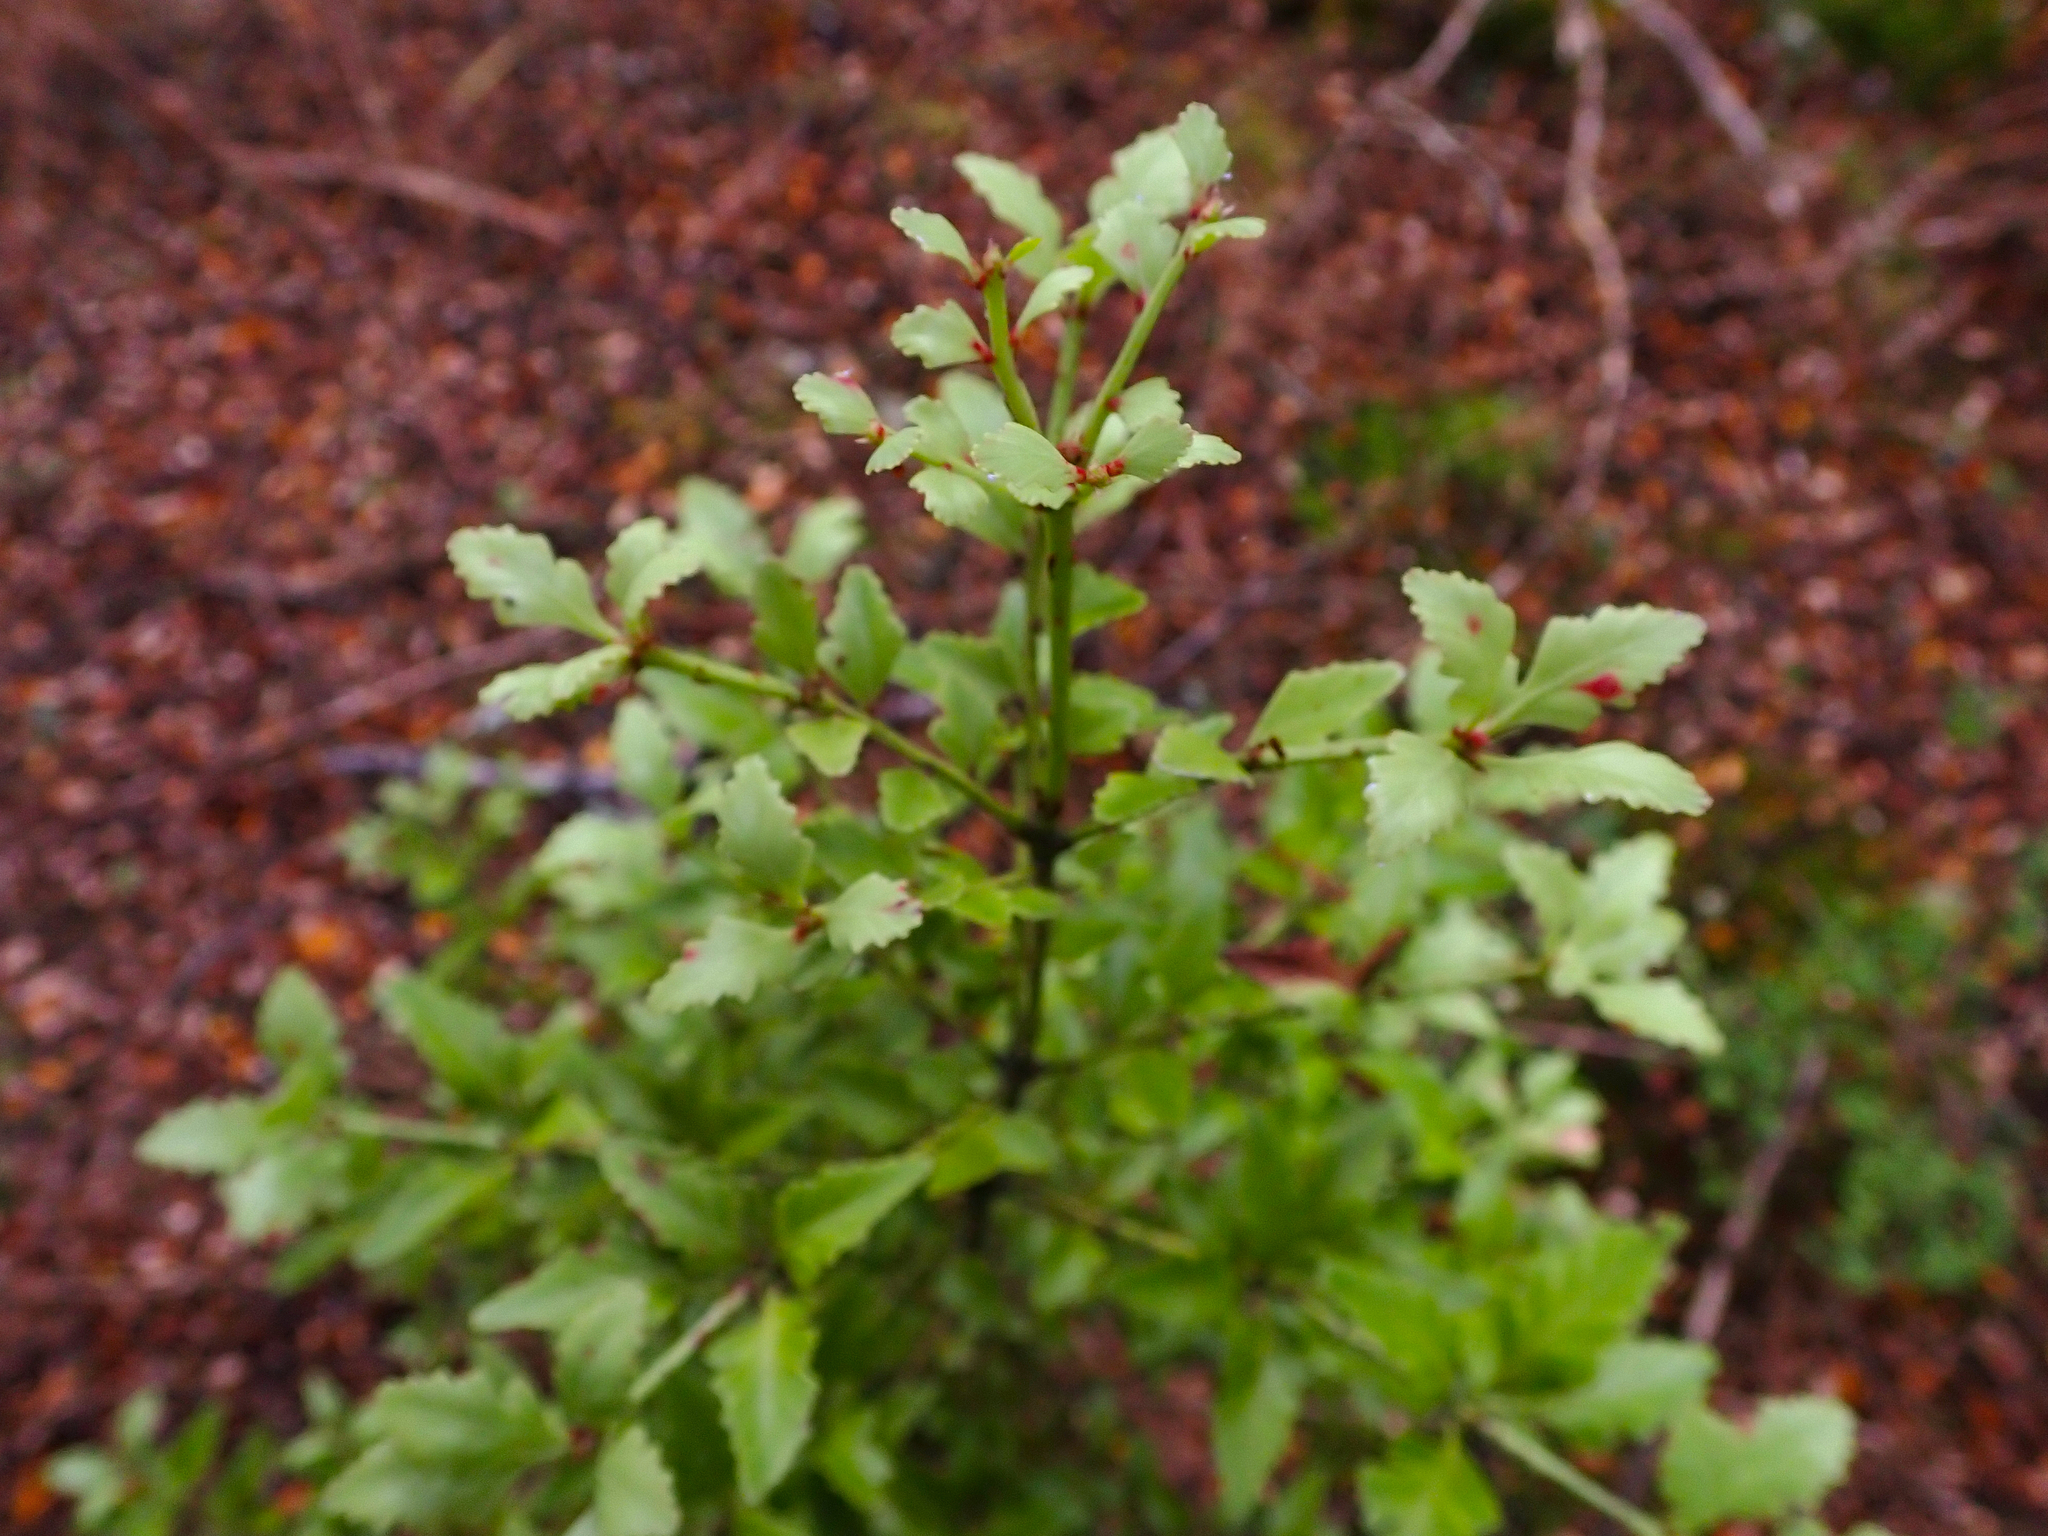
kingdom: Plantae
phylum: Tracheophyta
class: Pinopsida
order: Pinales
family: Phyllocladaceae
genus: Phyllocladus
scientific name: Phyllocladus trichomanoides
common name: Celery pine
